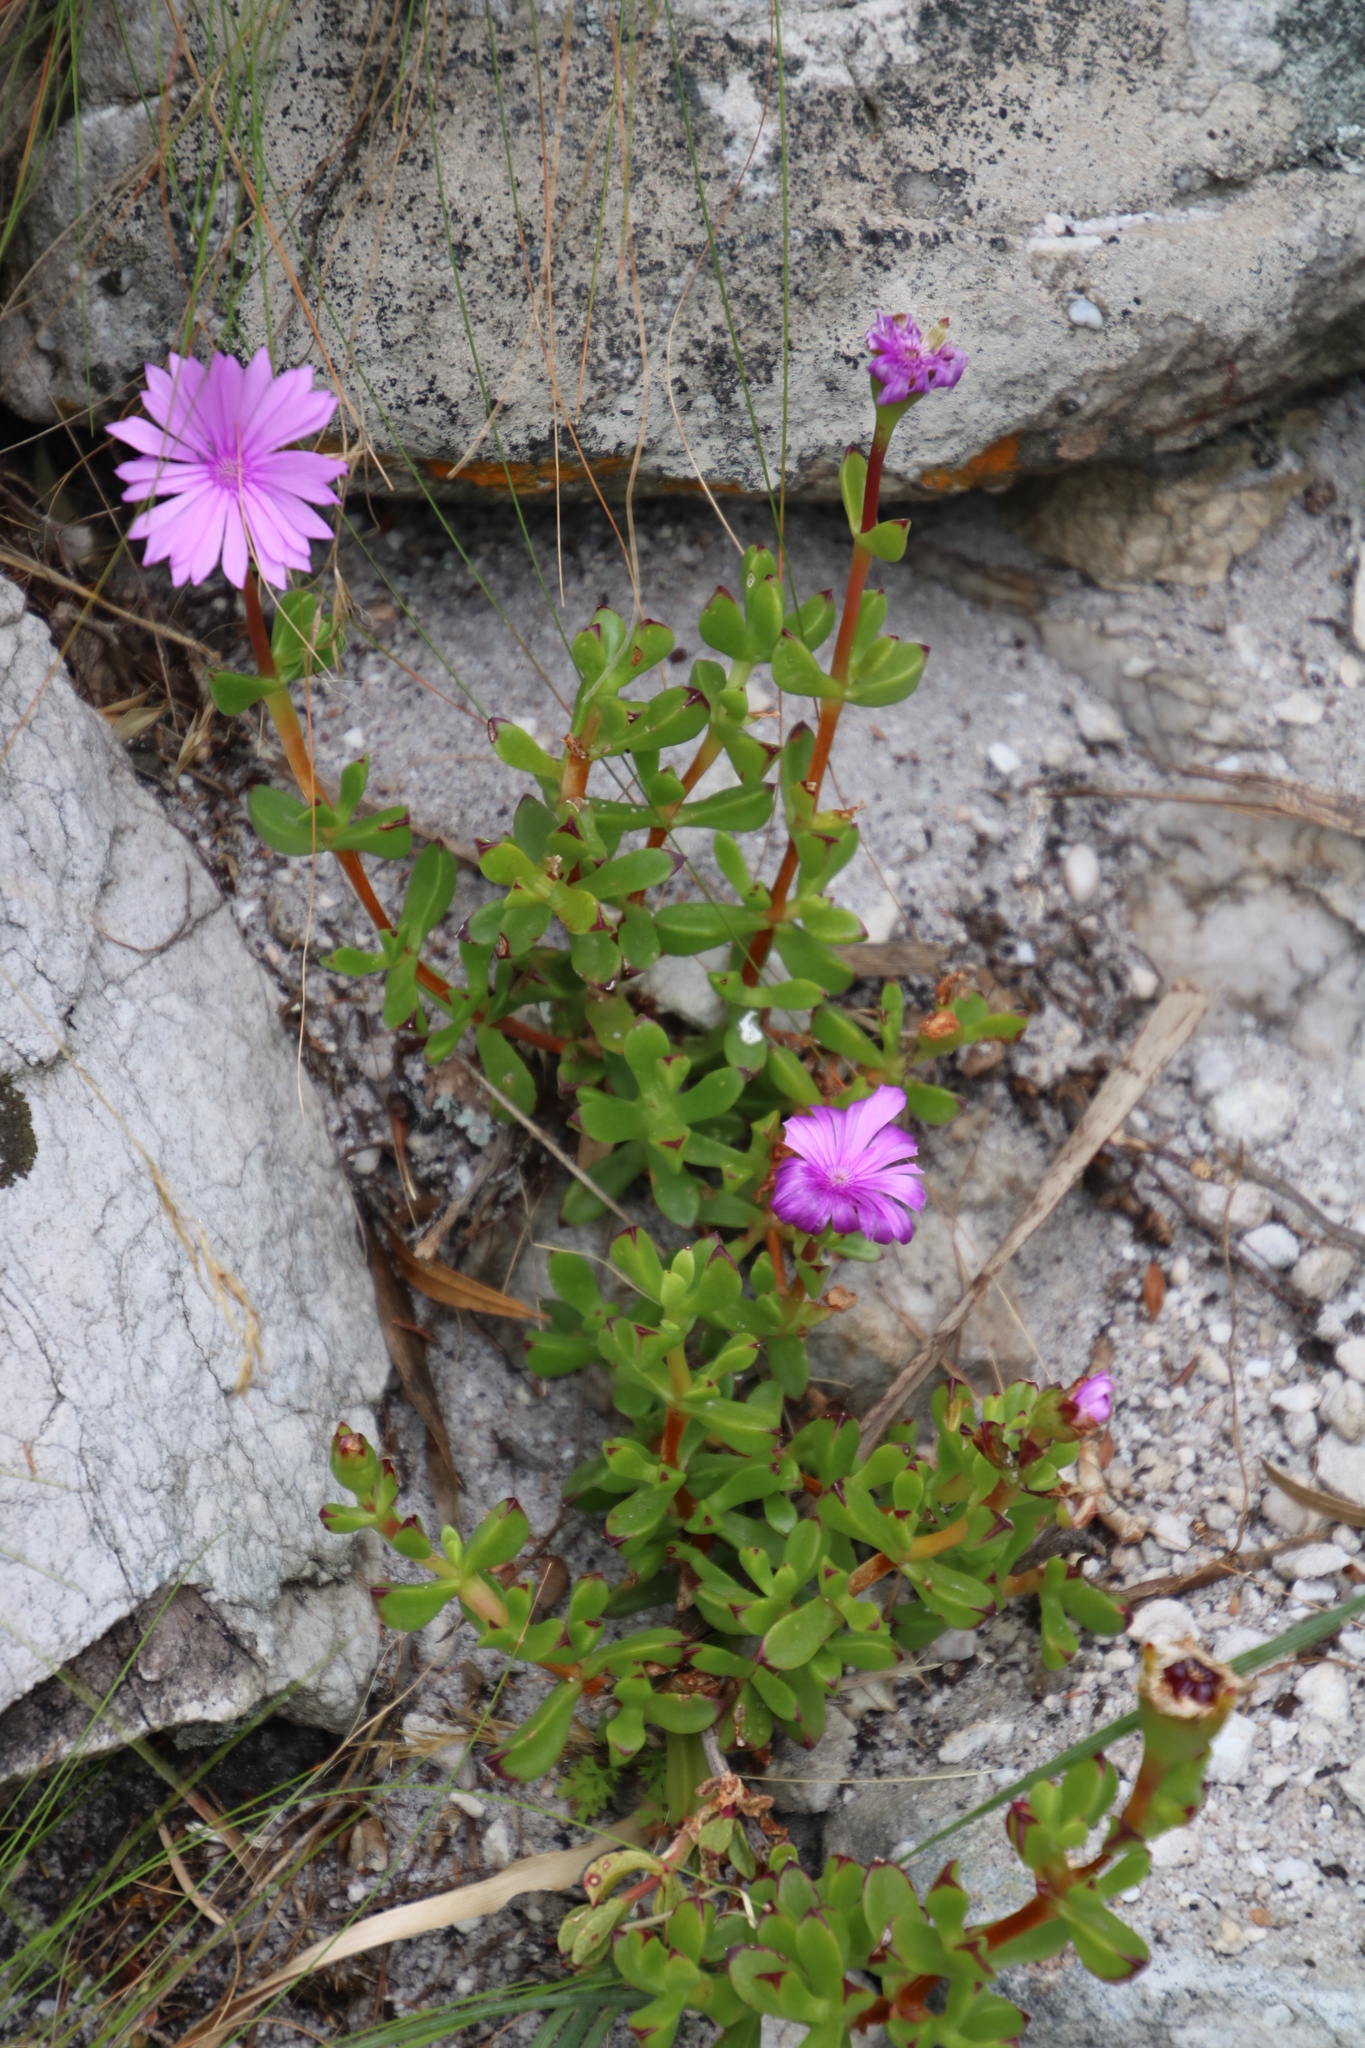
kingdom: Plantae
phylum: Tracheophyta
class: Magnoliopsida
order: Caryophyllales
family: Aizoaceae
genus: Erepsia
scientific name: Erepsia inclaudens
